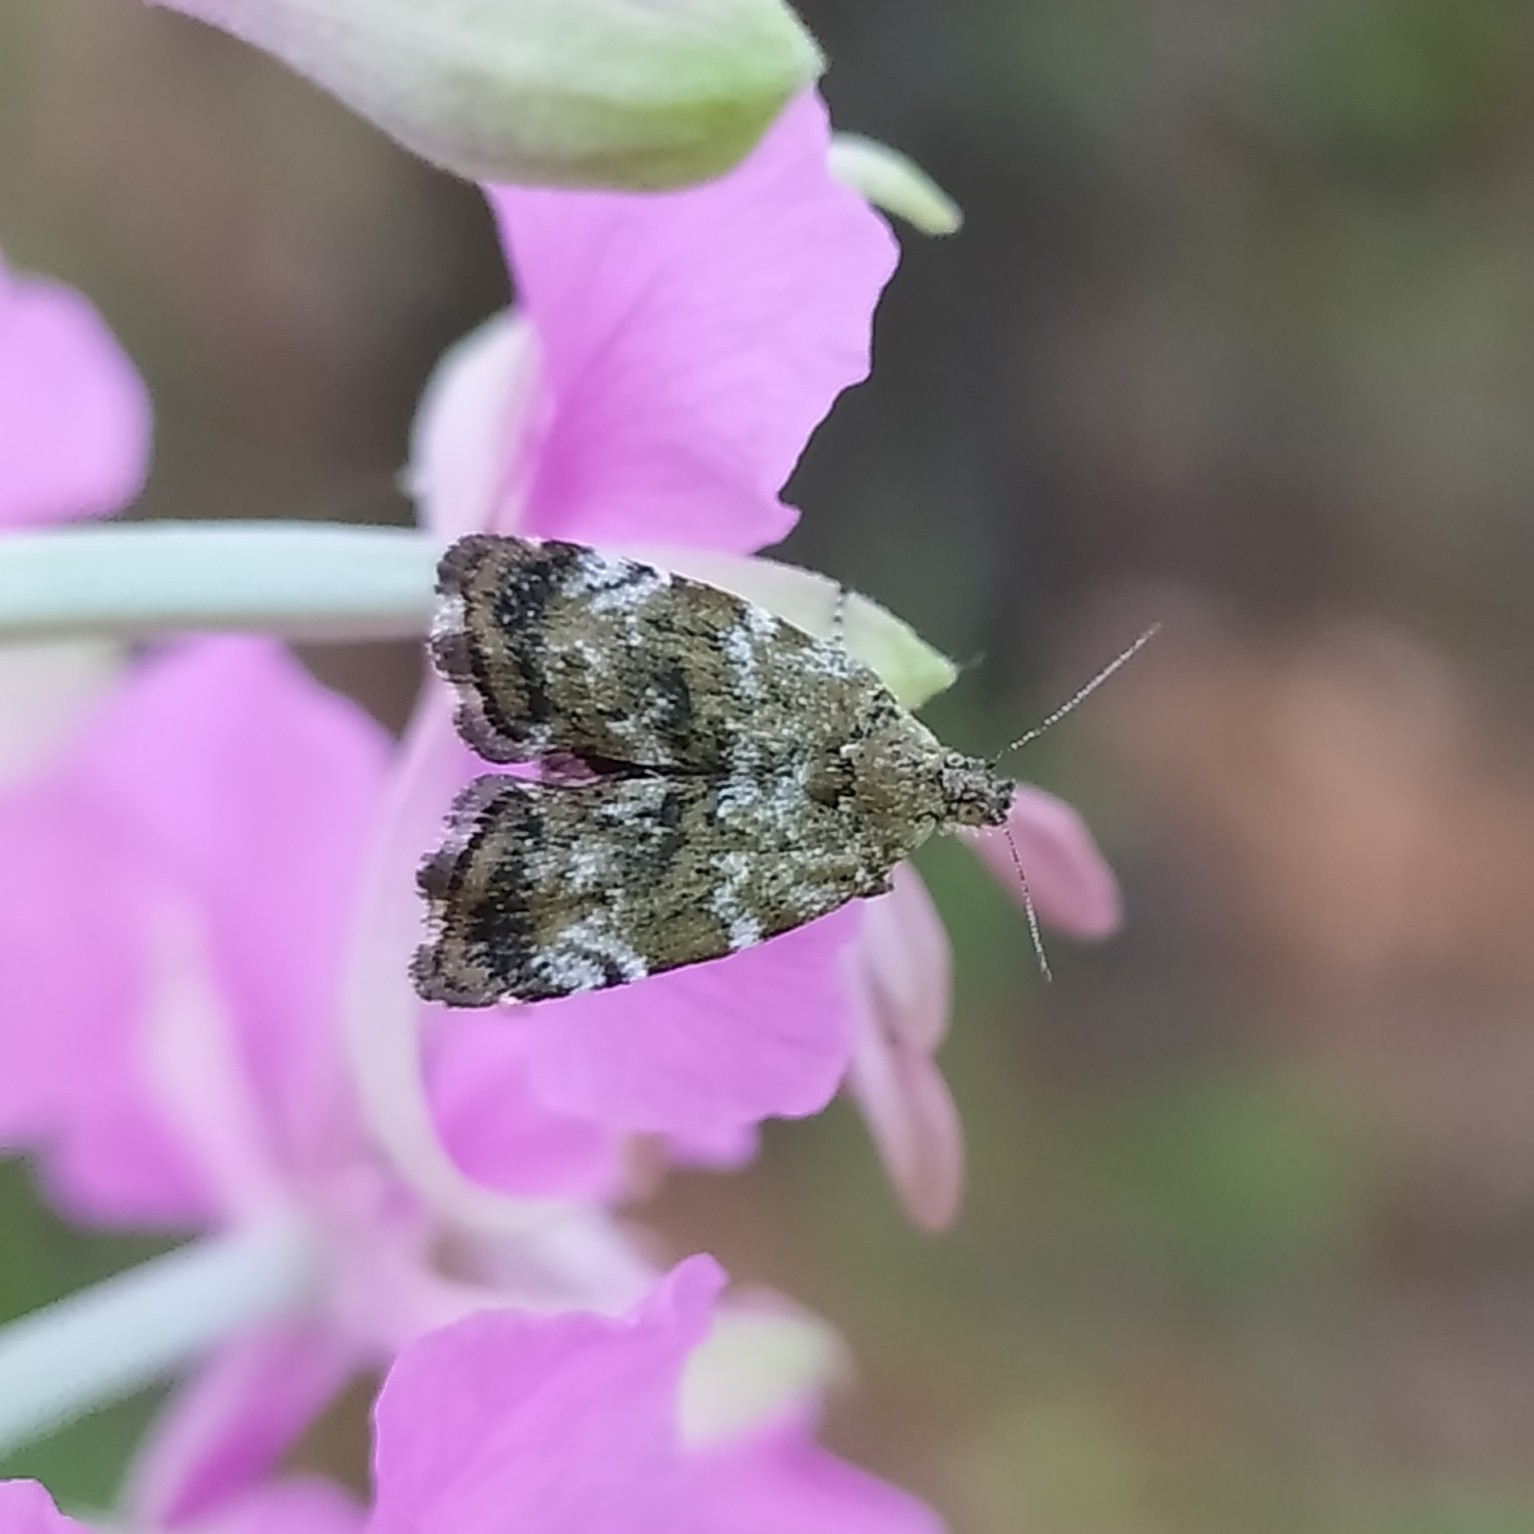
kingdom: Animalia
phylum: Arthropoda
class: Insecta
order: Lepidoptera
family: Choreutidae
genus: Choreutis
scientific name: Choreutis diana
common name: Inverness twitcher
